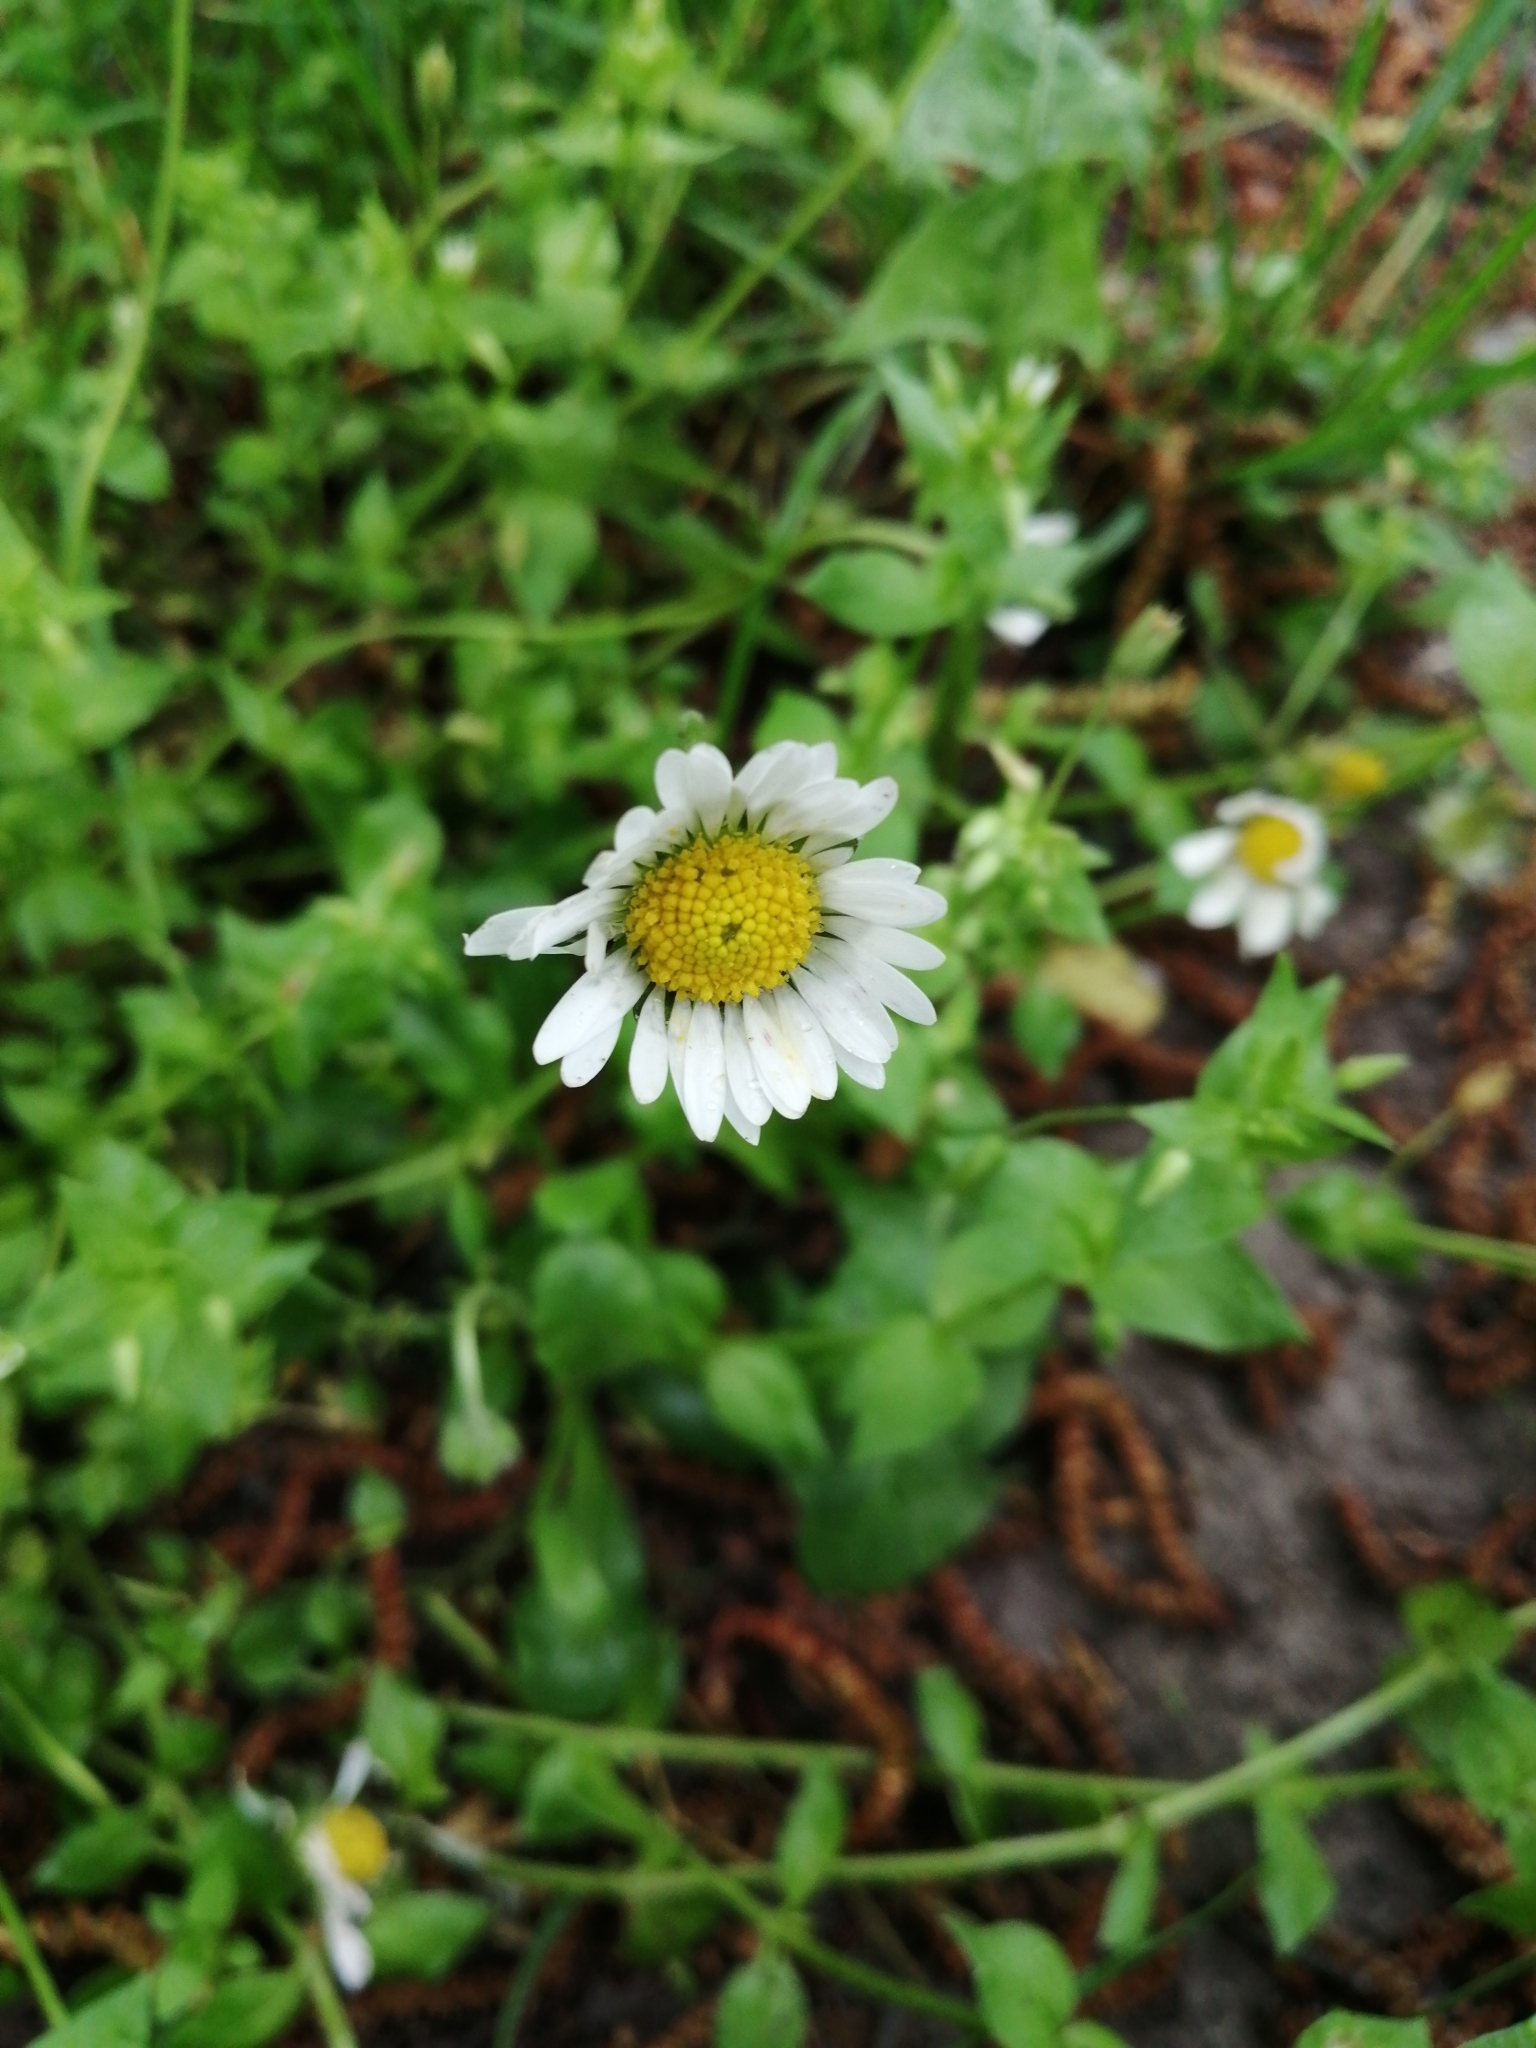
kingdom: Plantae
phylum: Tracheophyta
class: Magnoliopsida
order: Asterales
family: Asteraceae
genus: Bellis
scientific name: Bellis perennis
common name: Lawndaisy
